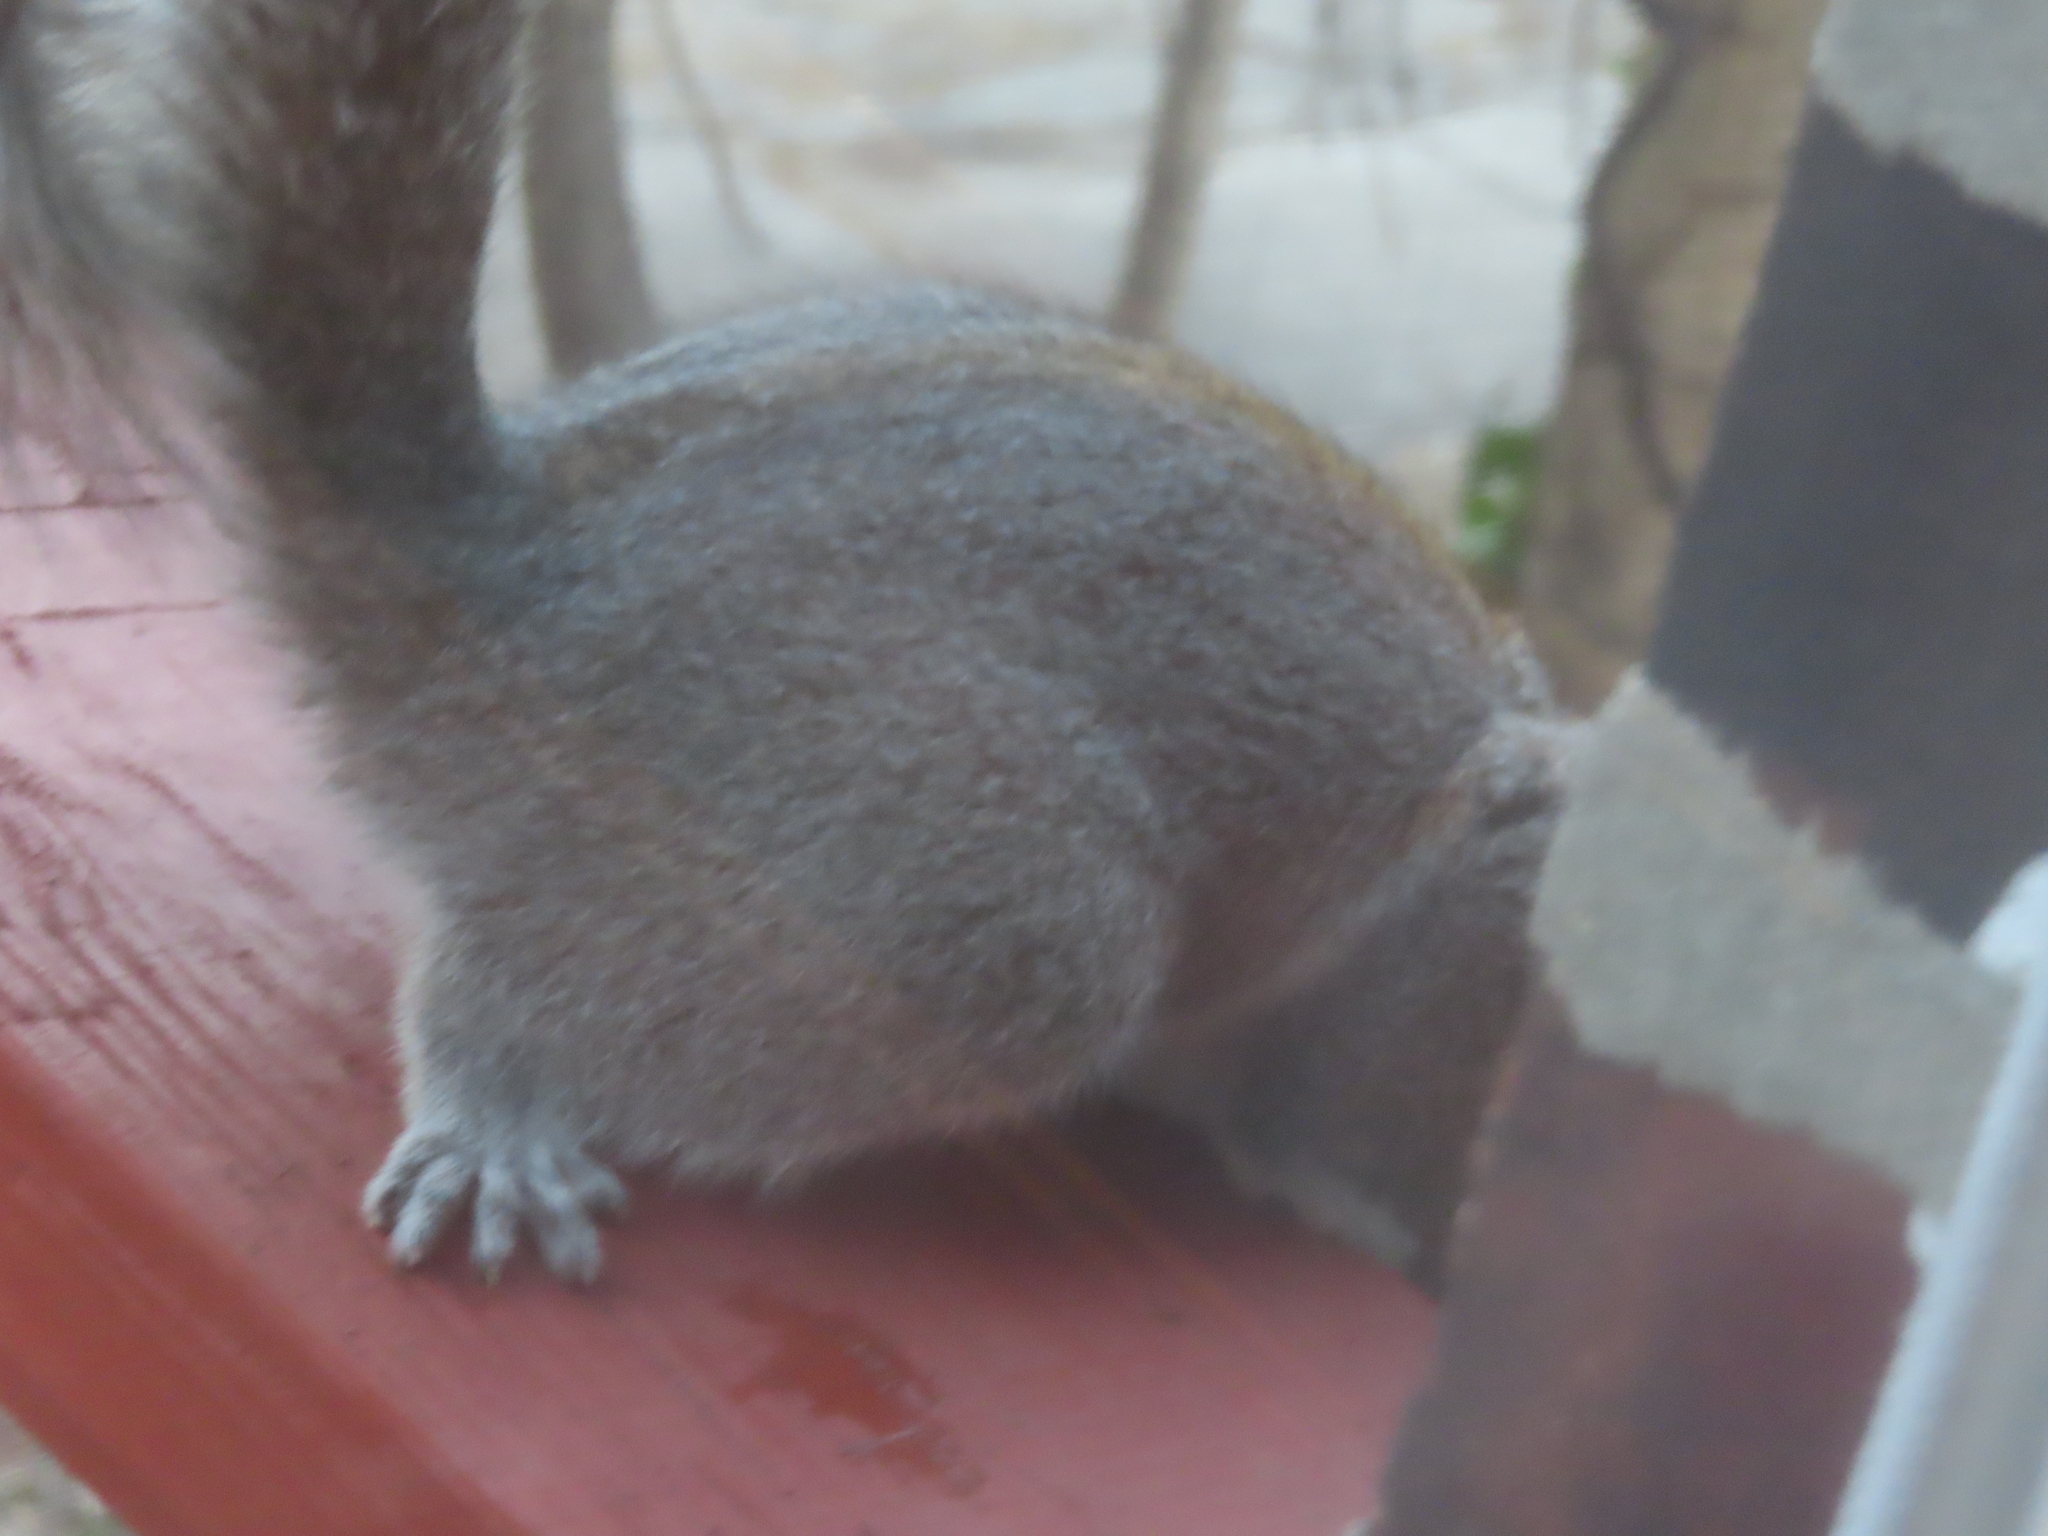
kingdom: Animalia
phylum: Chordata
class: Mammalia
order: Rodentia
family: Sciuridae
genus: Sciurus
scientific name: Sciurus carolinensis
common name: Eastern gray squirrel
